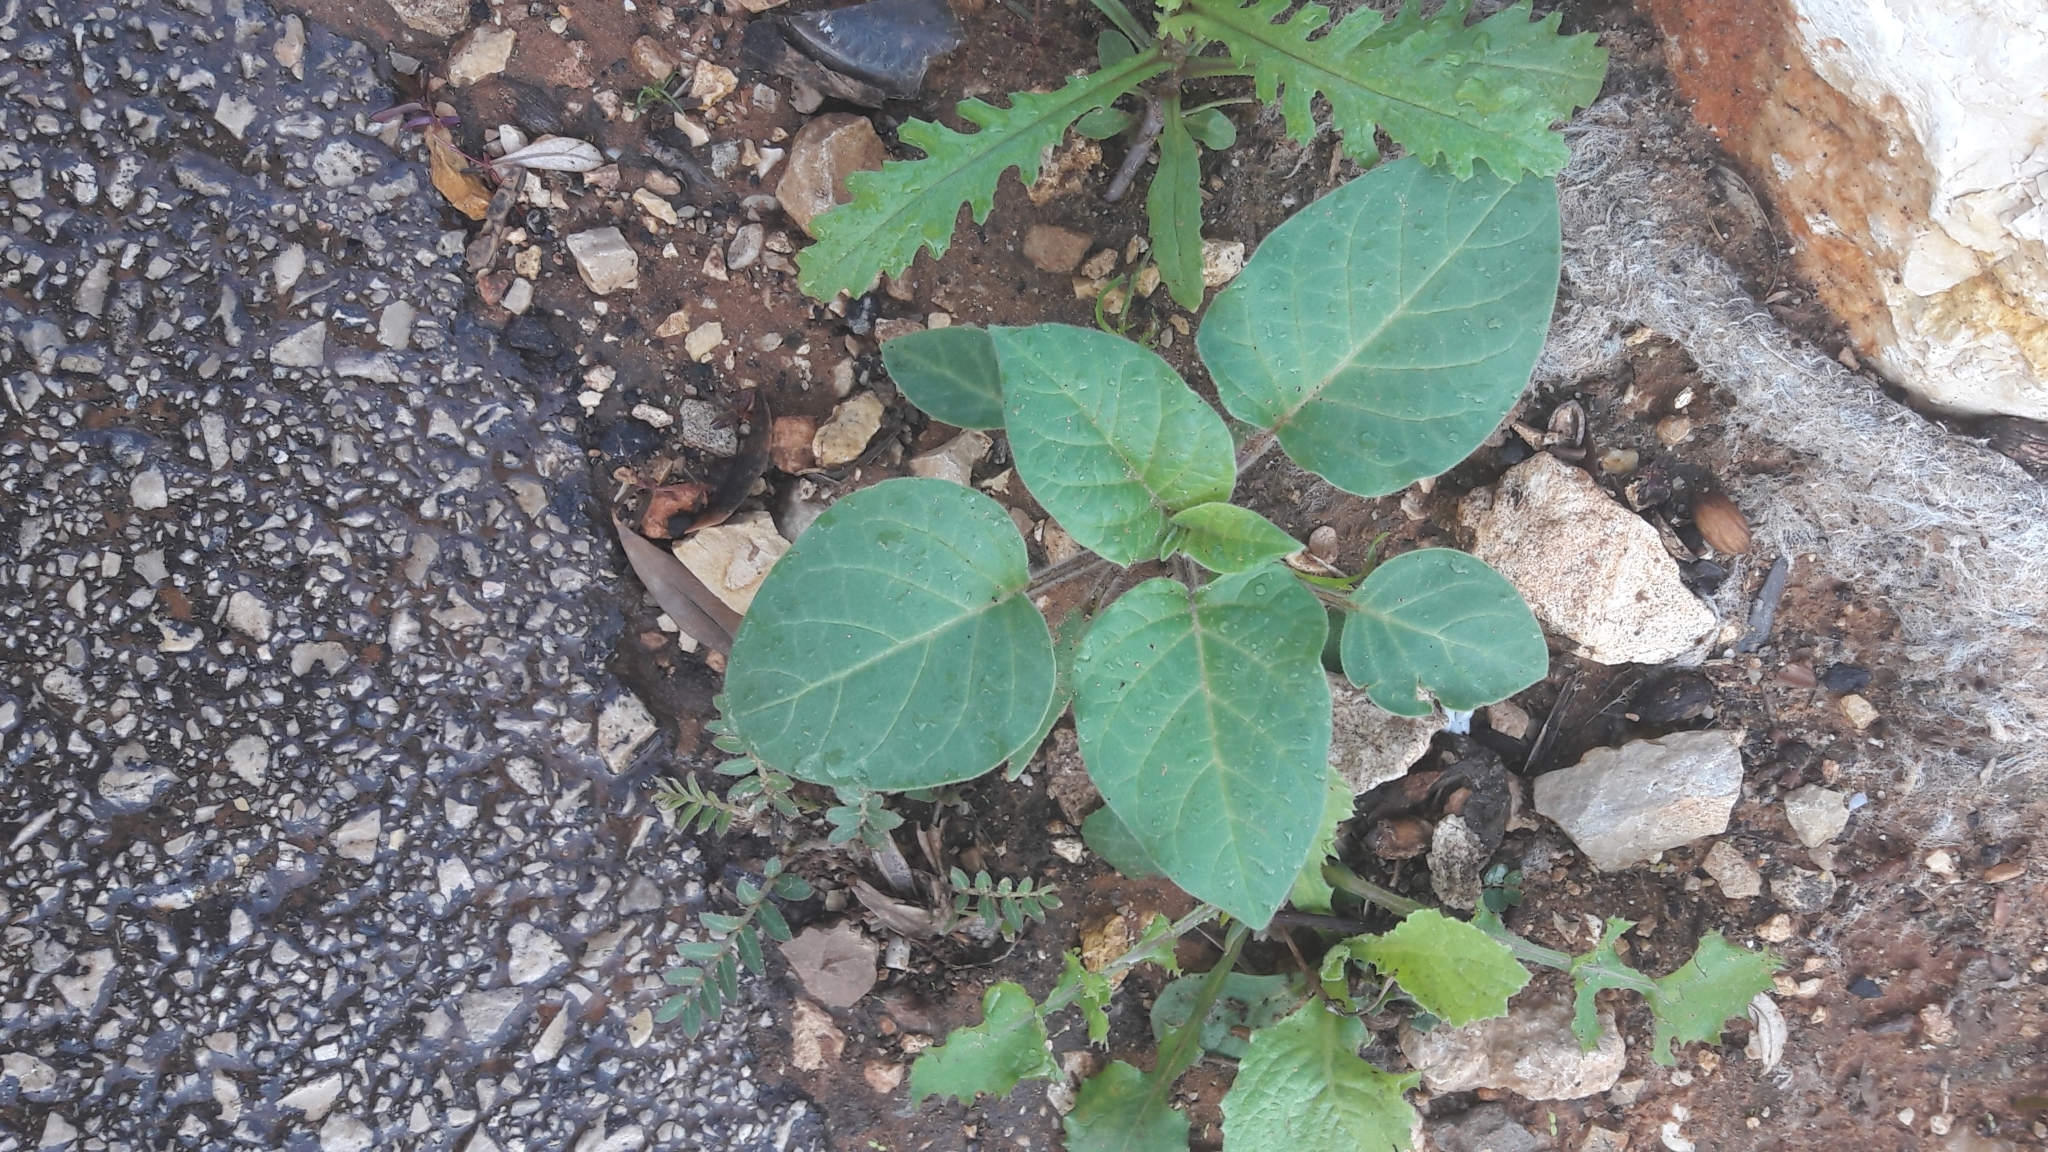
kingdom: Plantae
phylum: Tracheophyta
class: Magnoliopsida
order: Solanales
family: Solanaceae
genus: Withania
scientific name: Withania somnifera
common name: Winter-cherry
